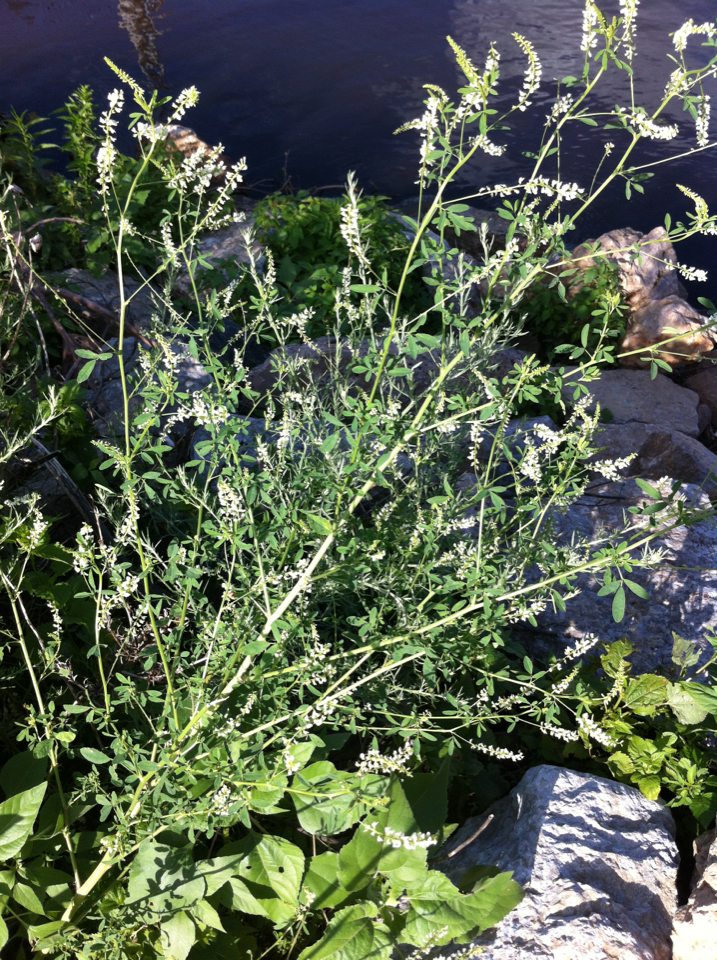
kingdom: Plantae
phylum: Tracheophyta
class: Magnoliopsida
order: Fabales
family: Fabaceae
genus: Melilotus
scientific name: Melilotus albus
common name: White melilot
